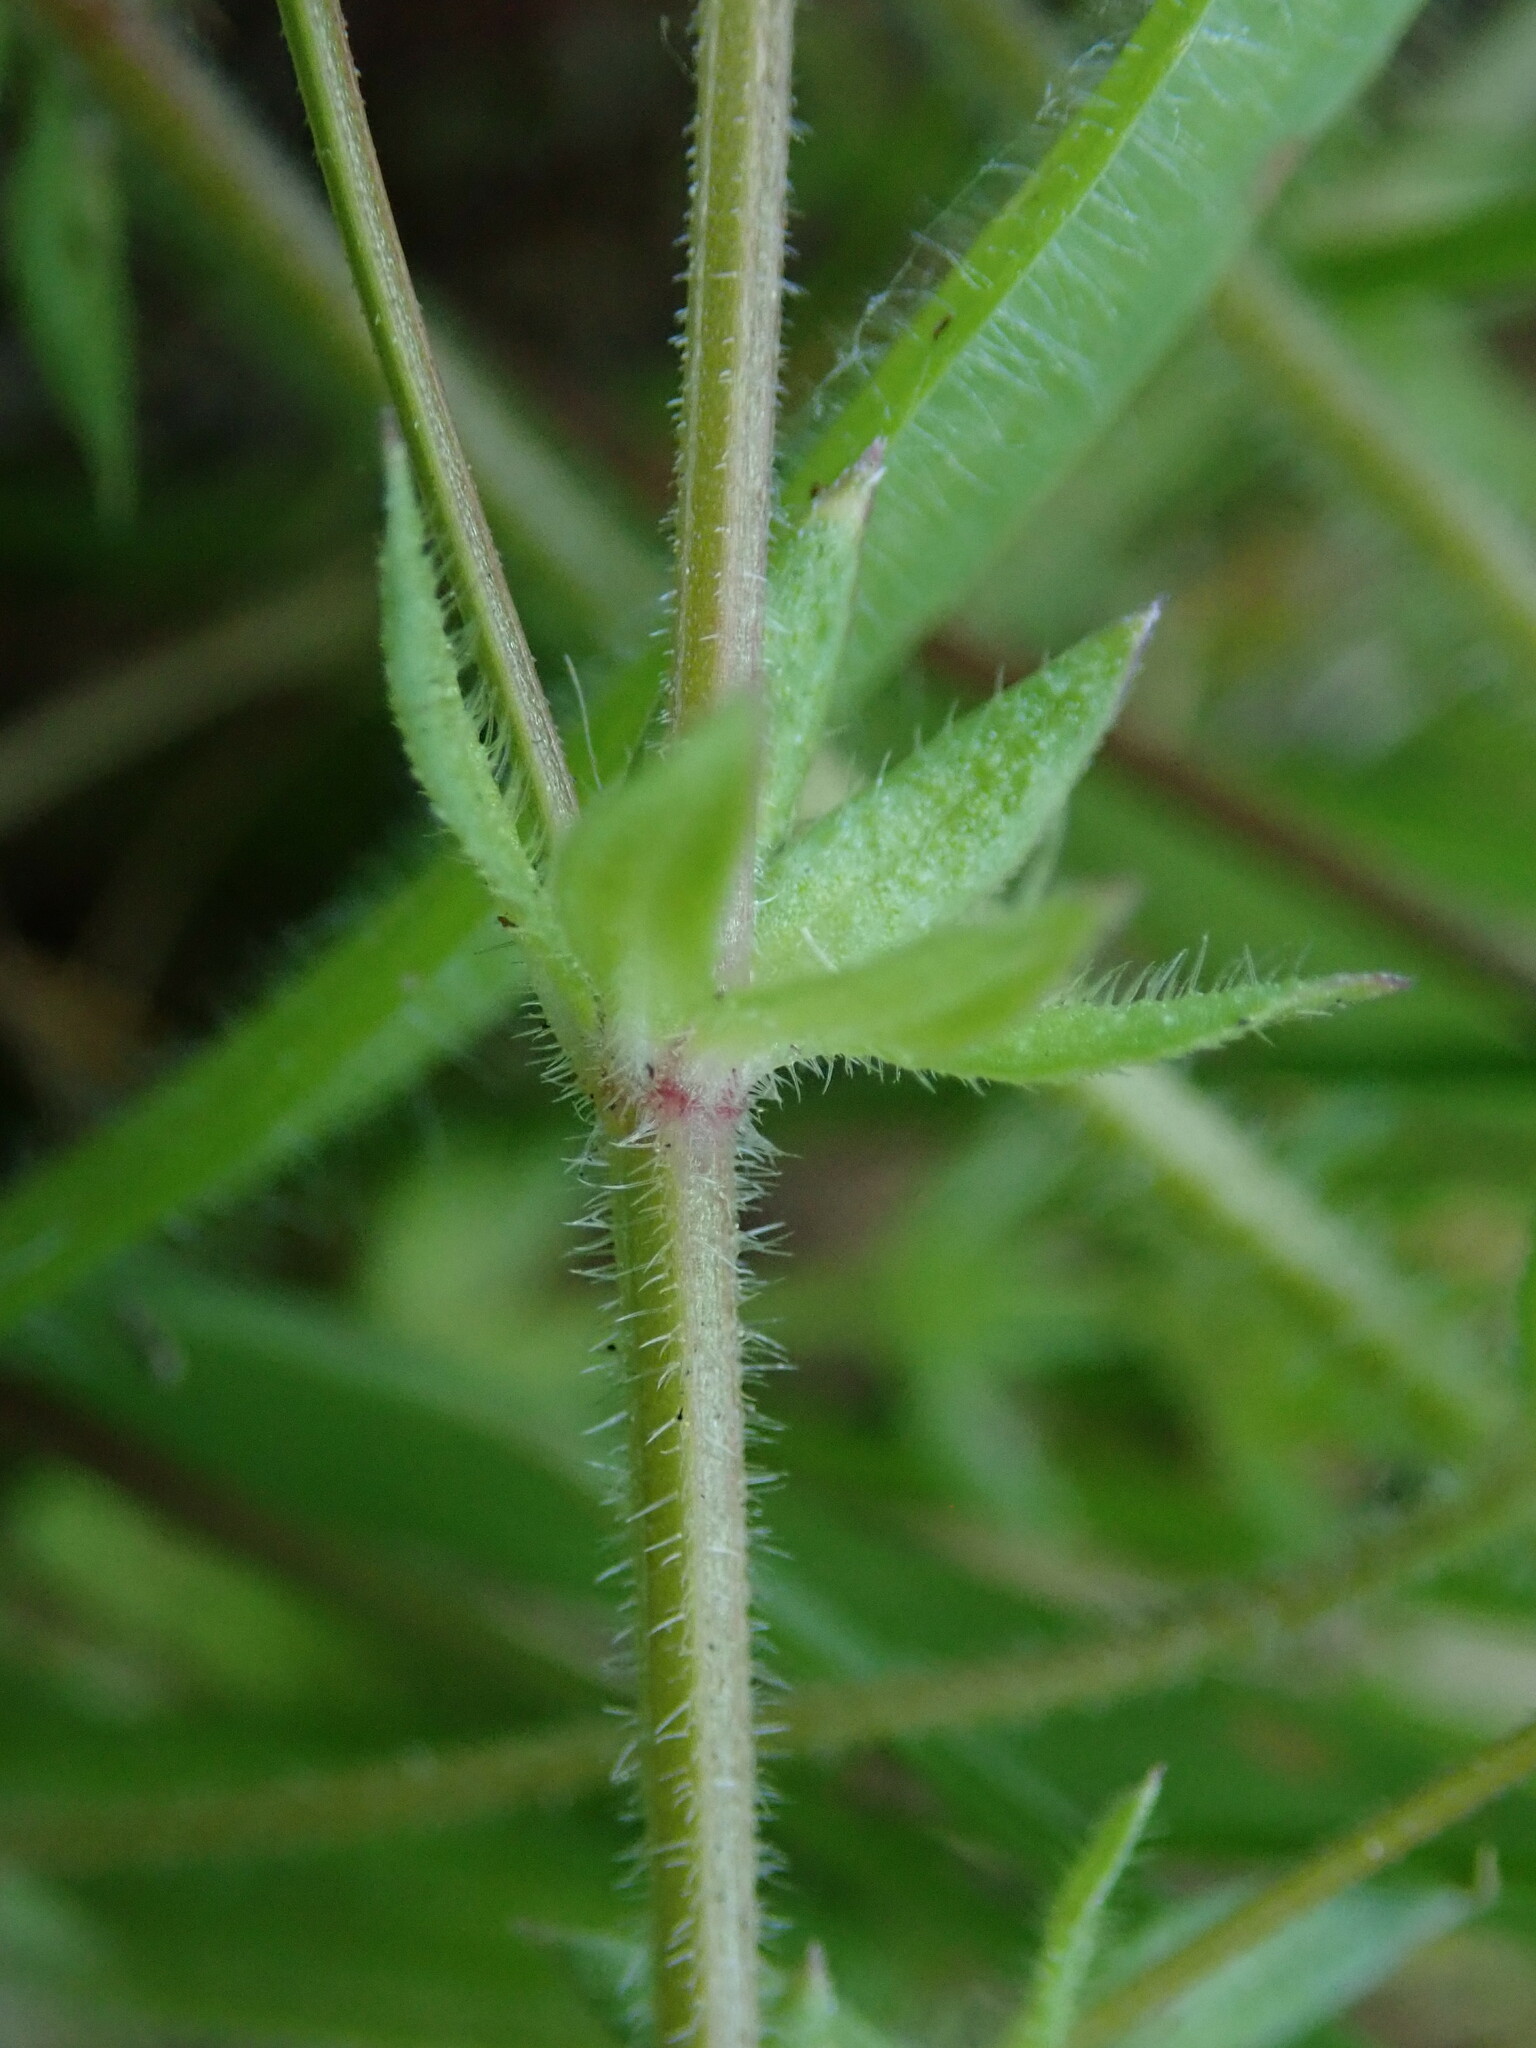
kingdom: Plantae
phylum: Tracheophyta
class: Magnoliopsida
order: Gentianales
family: Rubiaceae
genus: Sherardia
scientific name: Sherardia arvensis
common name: Field madder
